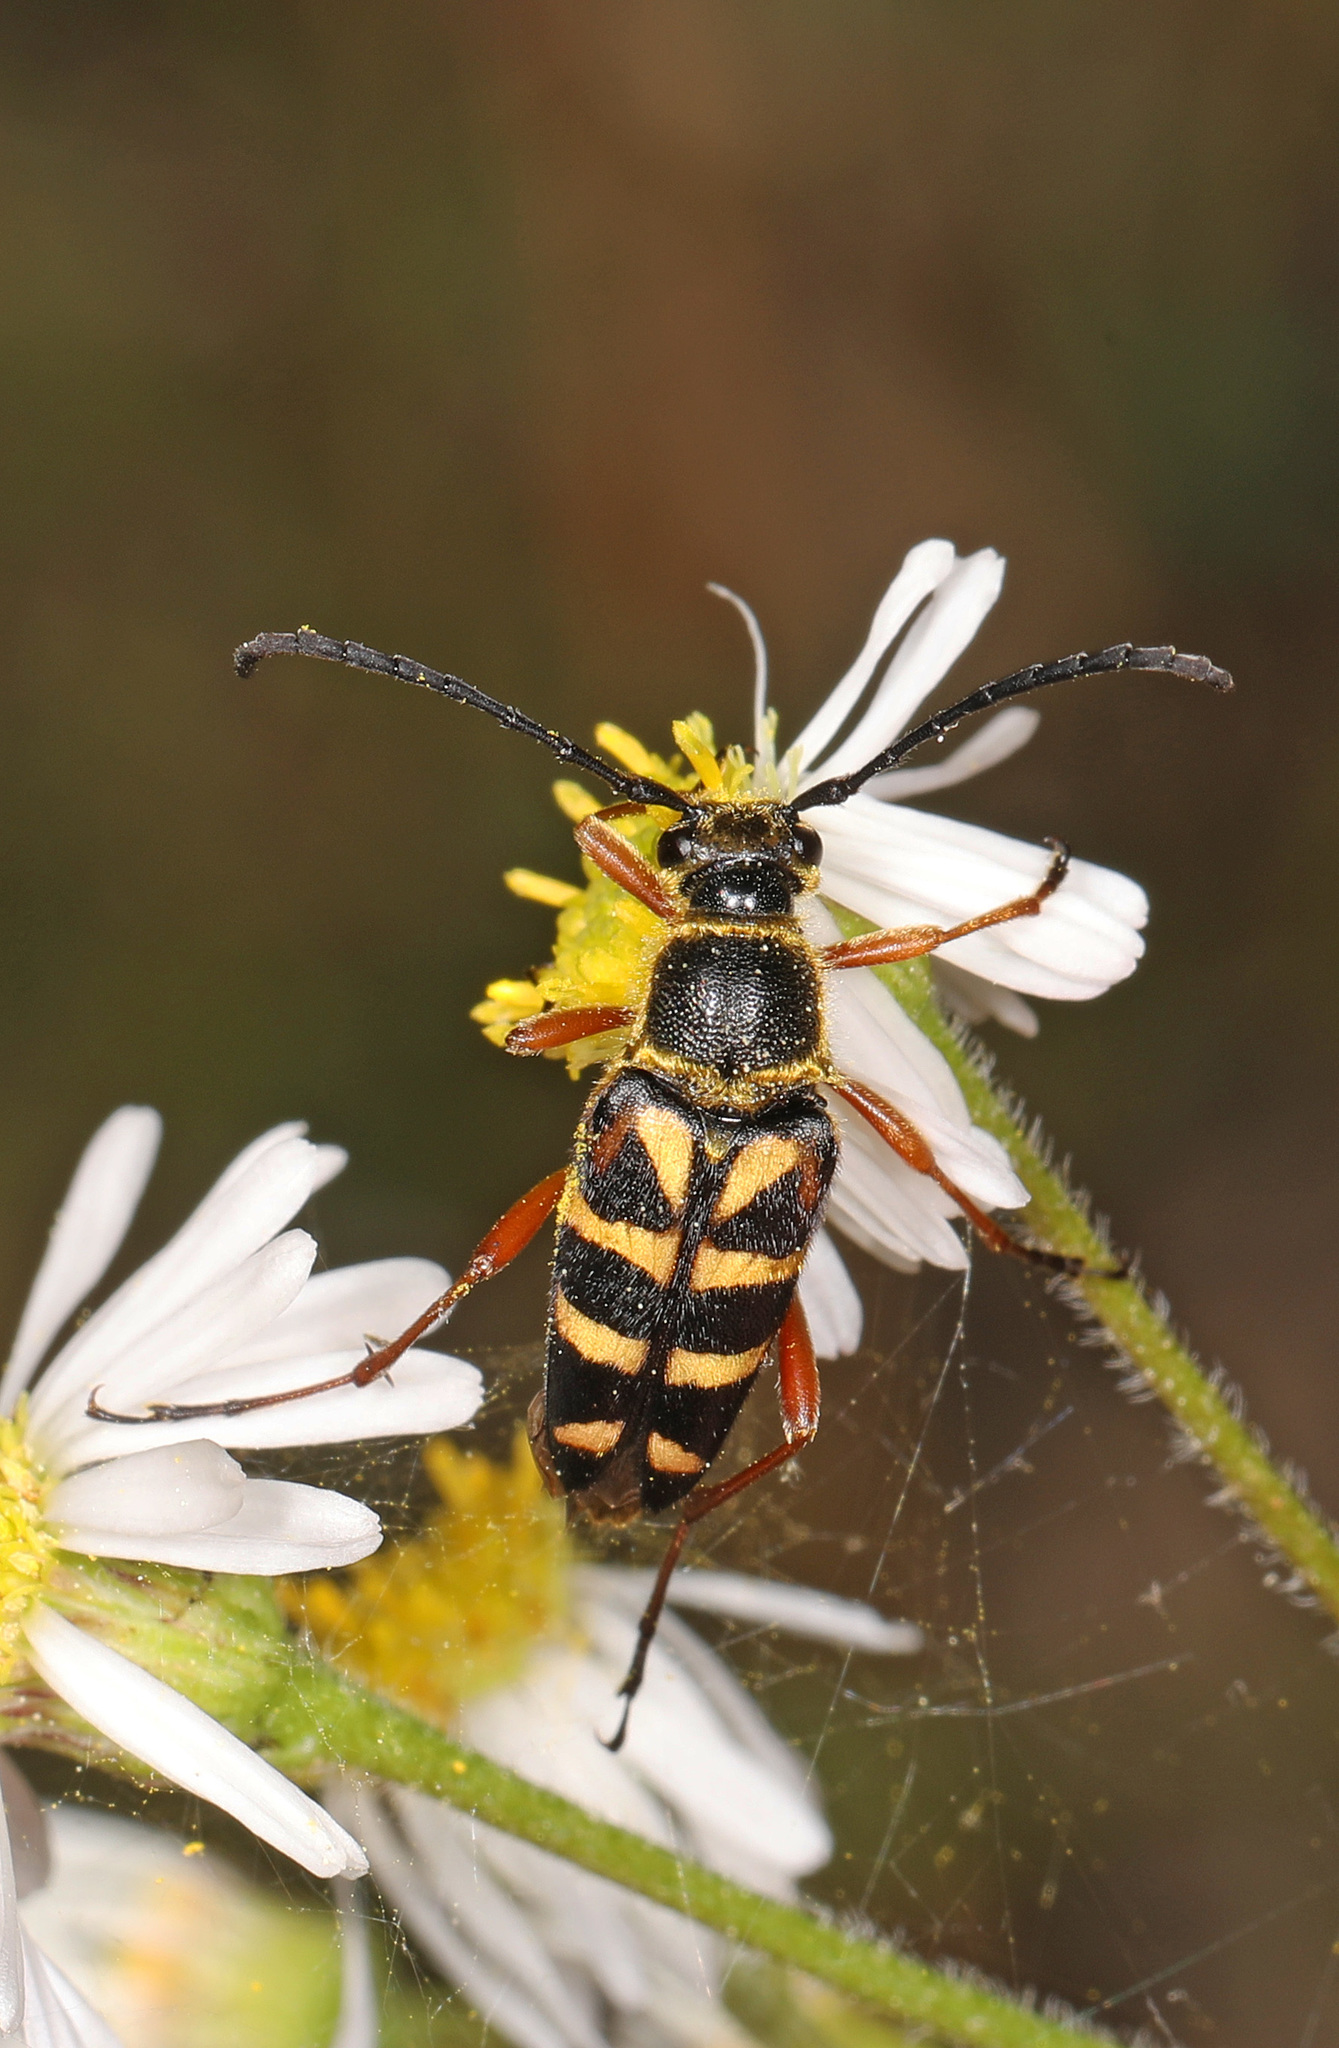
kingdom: Animalia
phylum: Arthropoda
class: Insecta
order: Coleoptera
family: Cerambycidae
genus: Typocerus
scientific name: Typocerus zebra
